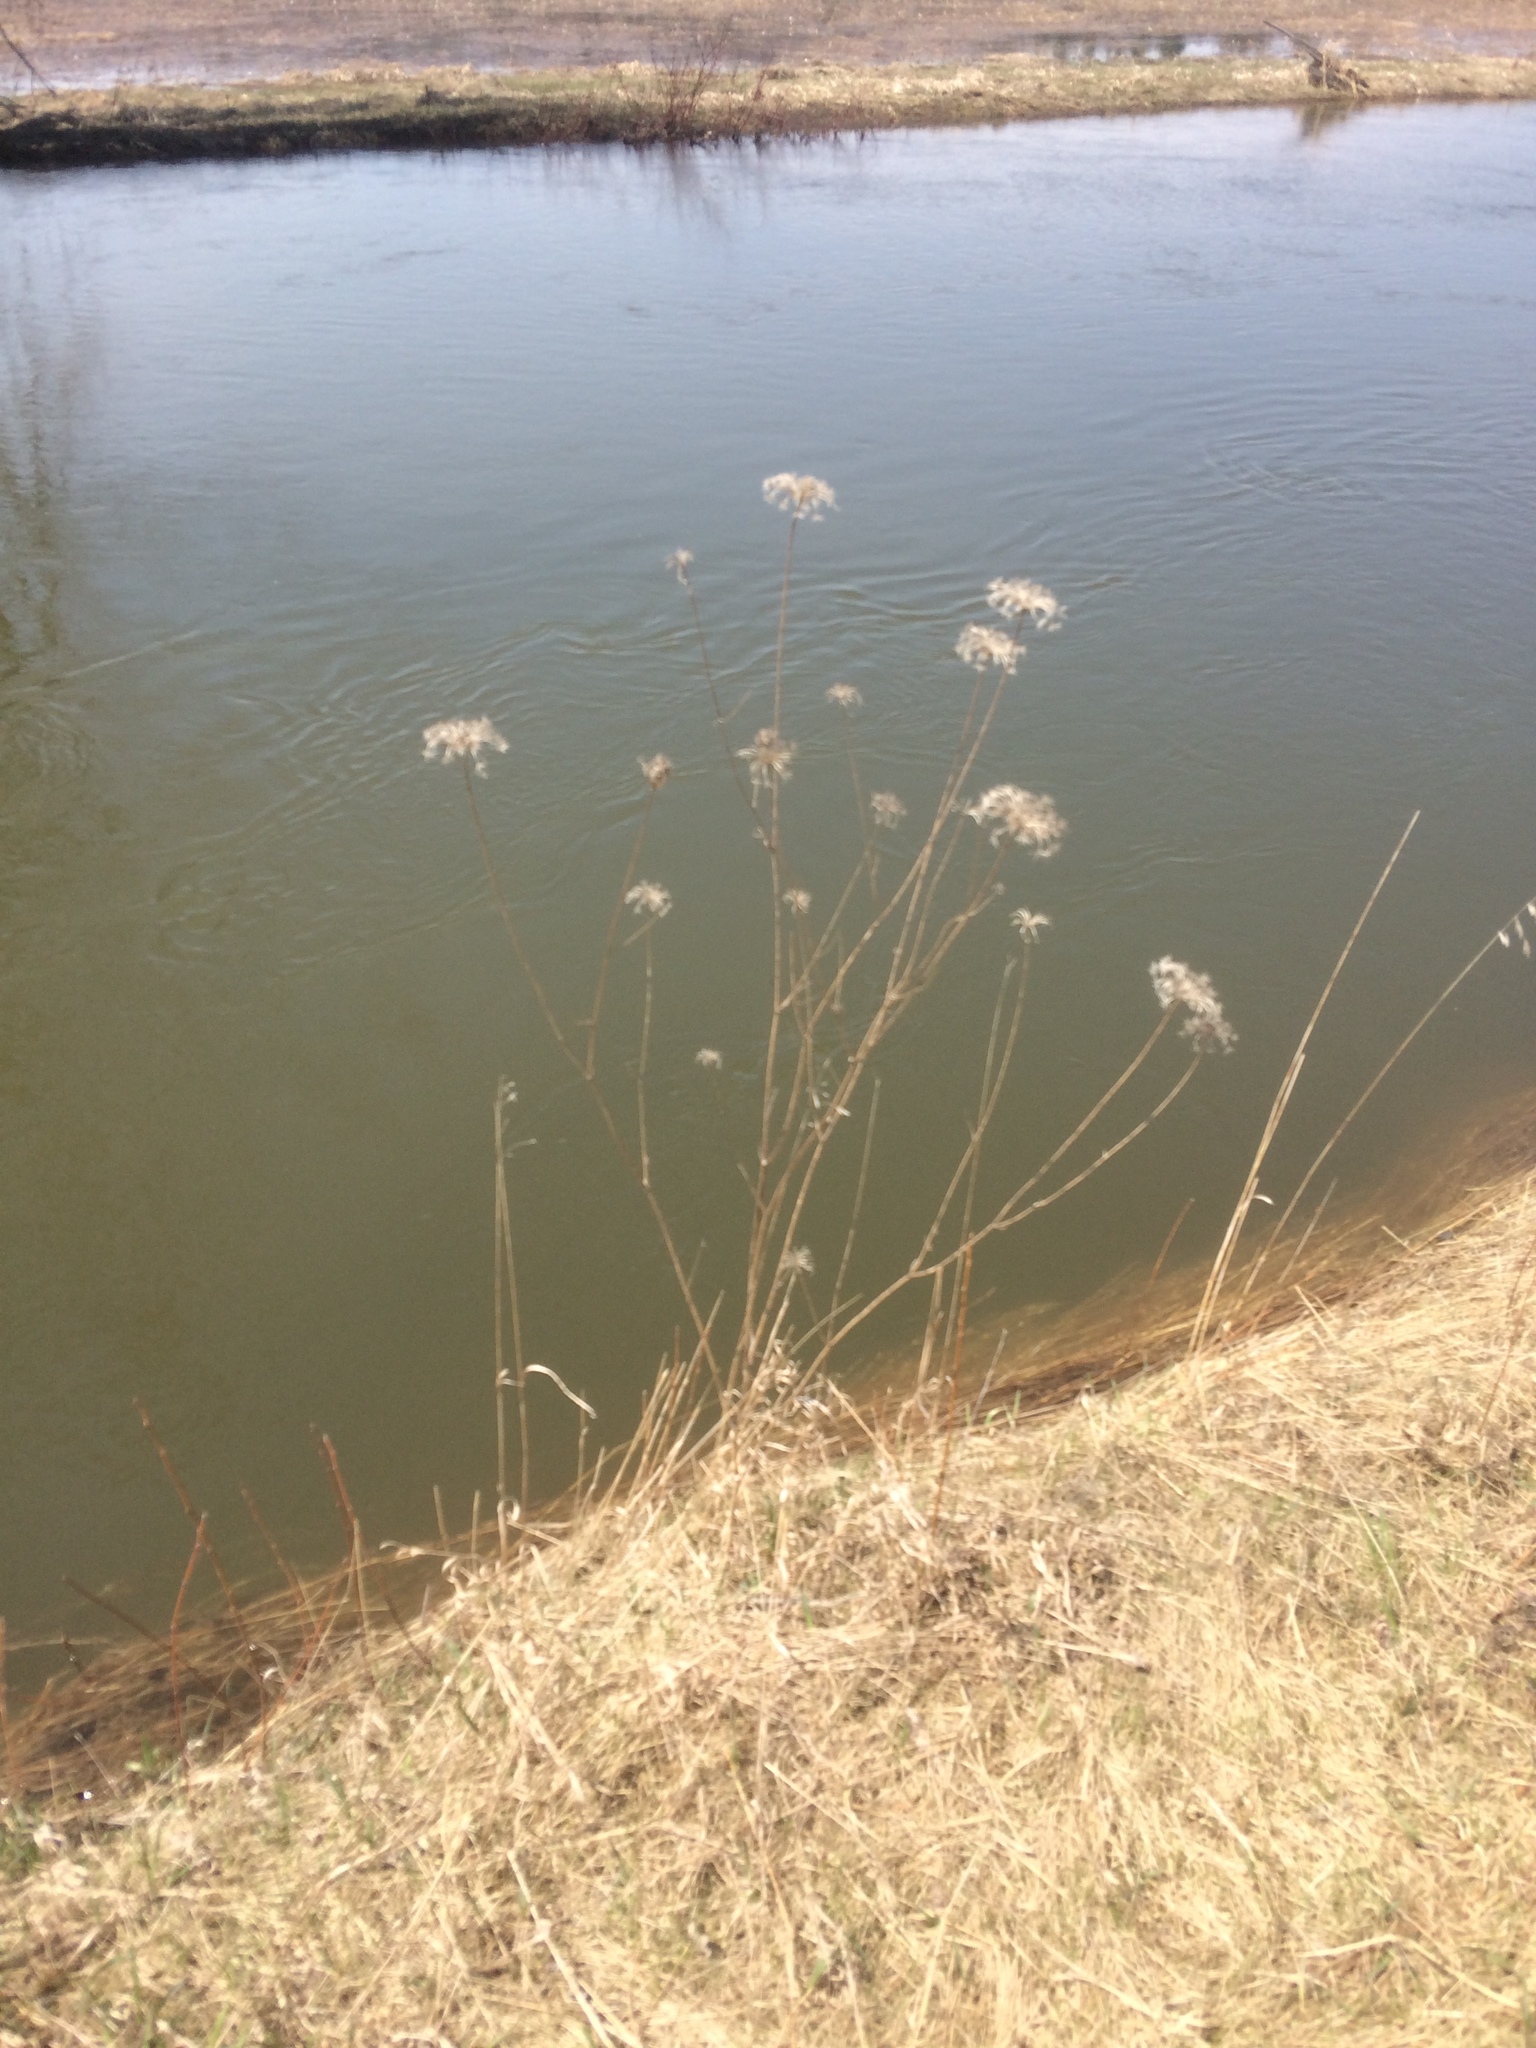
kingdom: Plantae
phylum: Tracheophyta
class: Magnoliopsida
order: Apiales
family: Apiaceae
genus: Daucus
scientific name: Daucus carota
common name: Wild carrot
